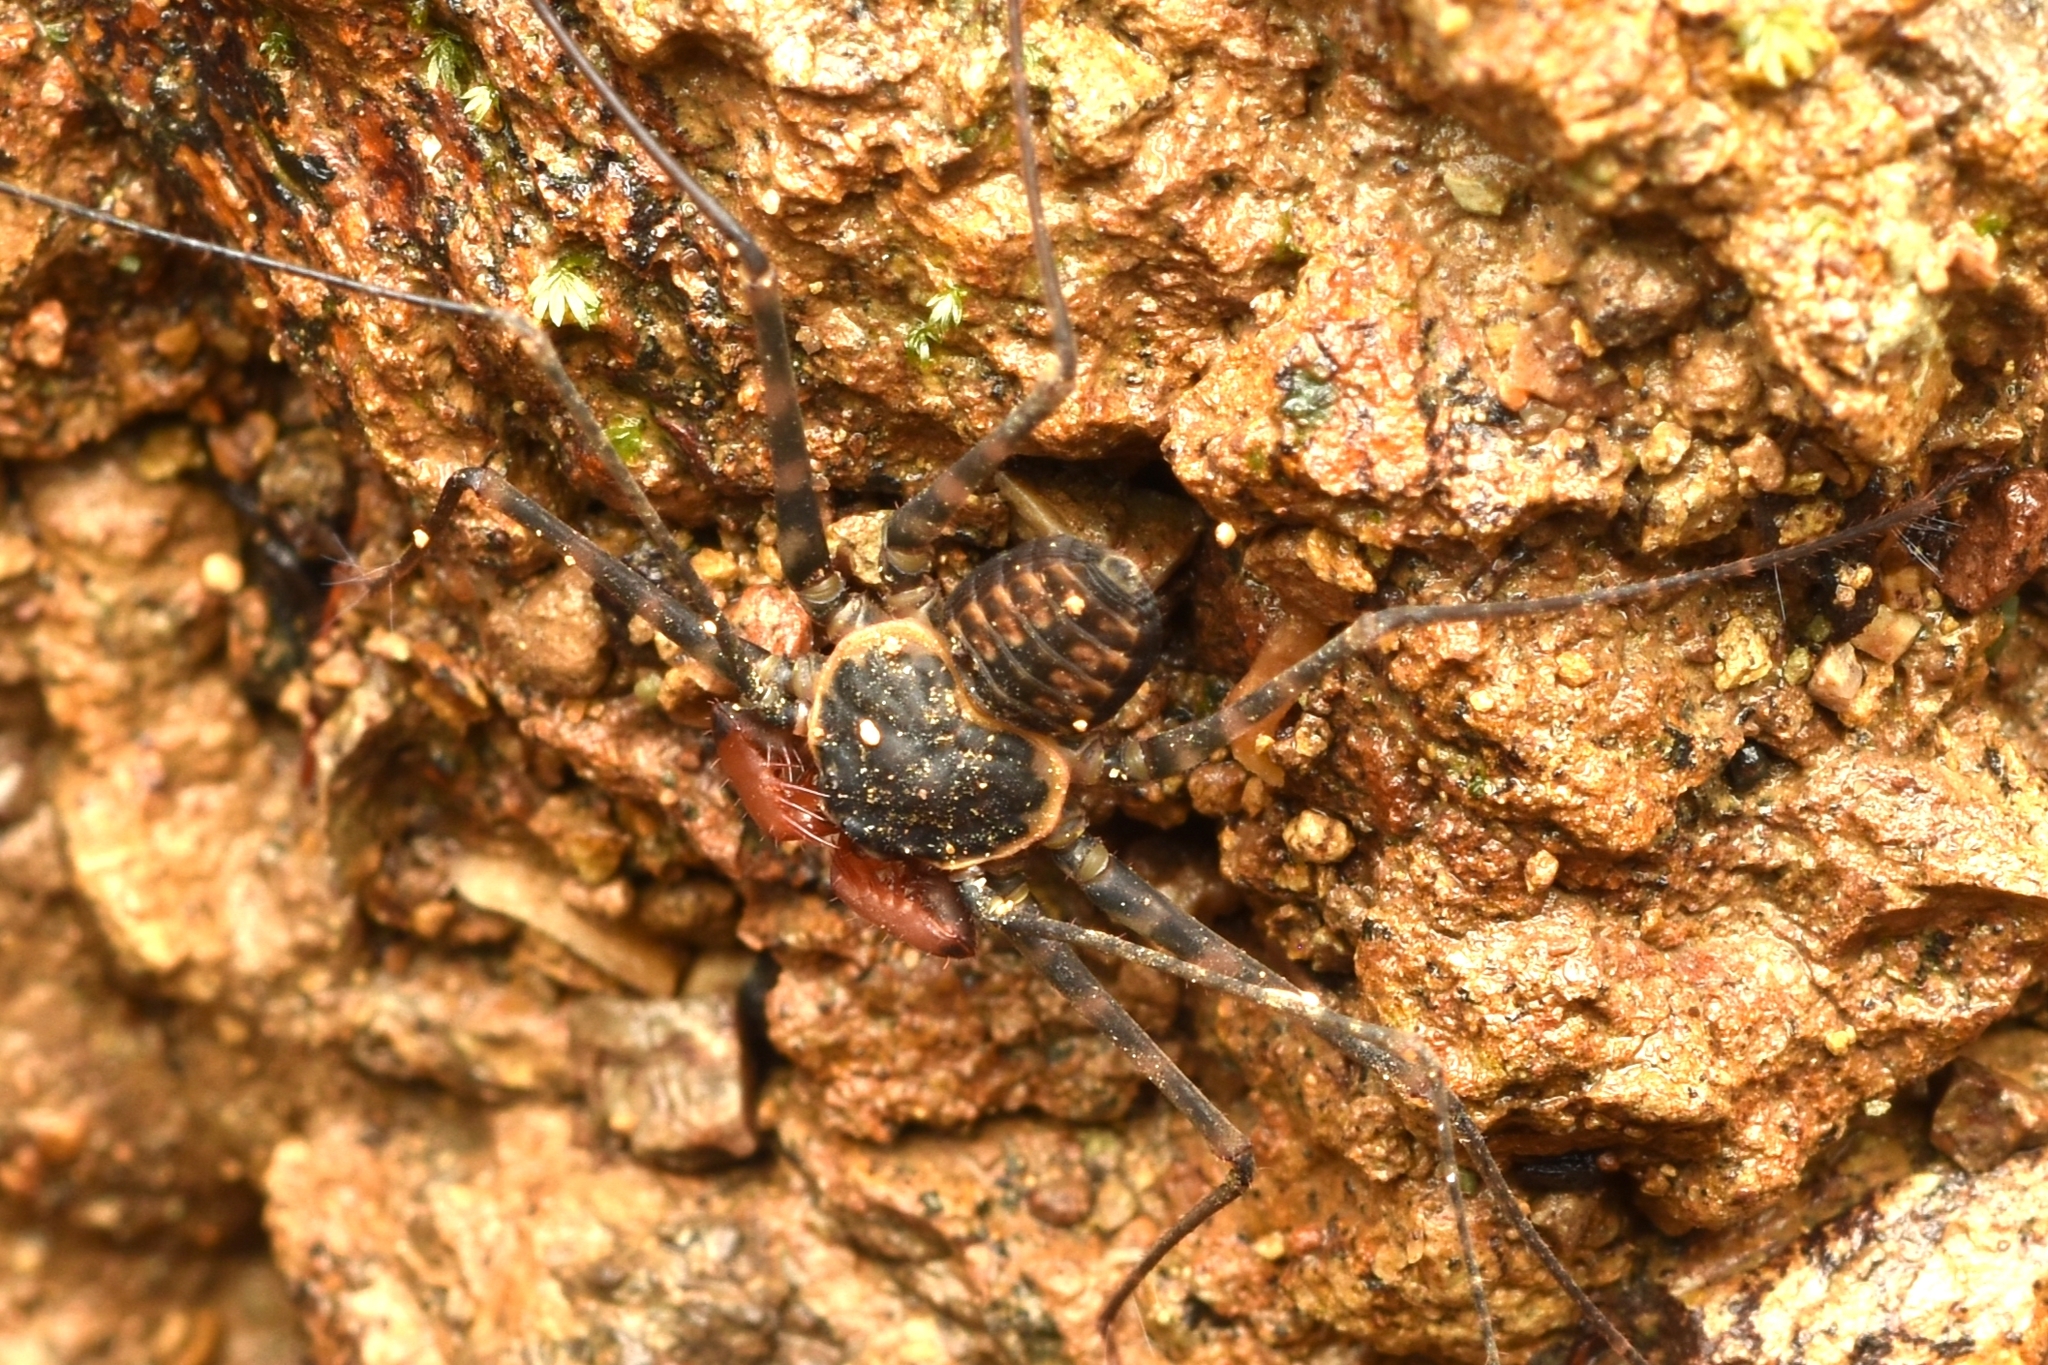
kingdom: Animalia
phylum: Arthropoda
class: Arachnida
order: Amblypygi
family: Phrynidae
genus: Paraphrynus
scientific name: Paraphrynus laevifrons
